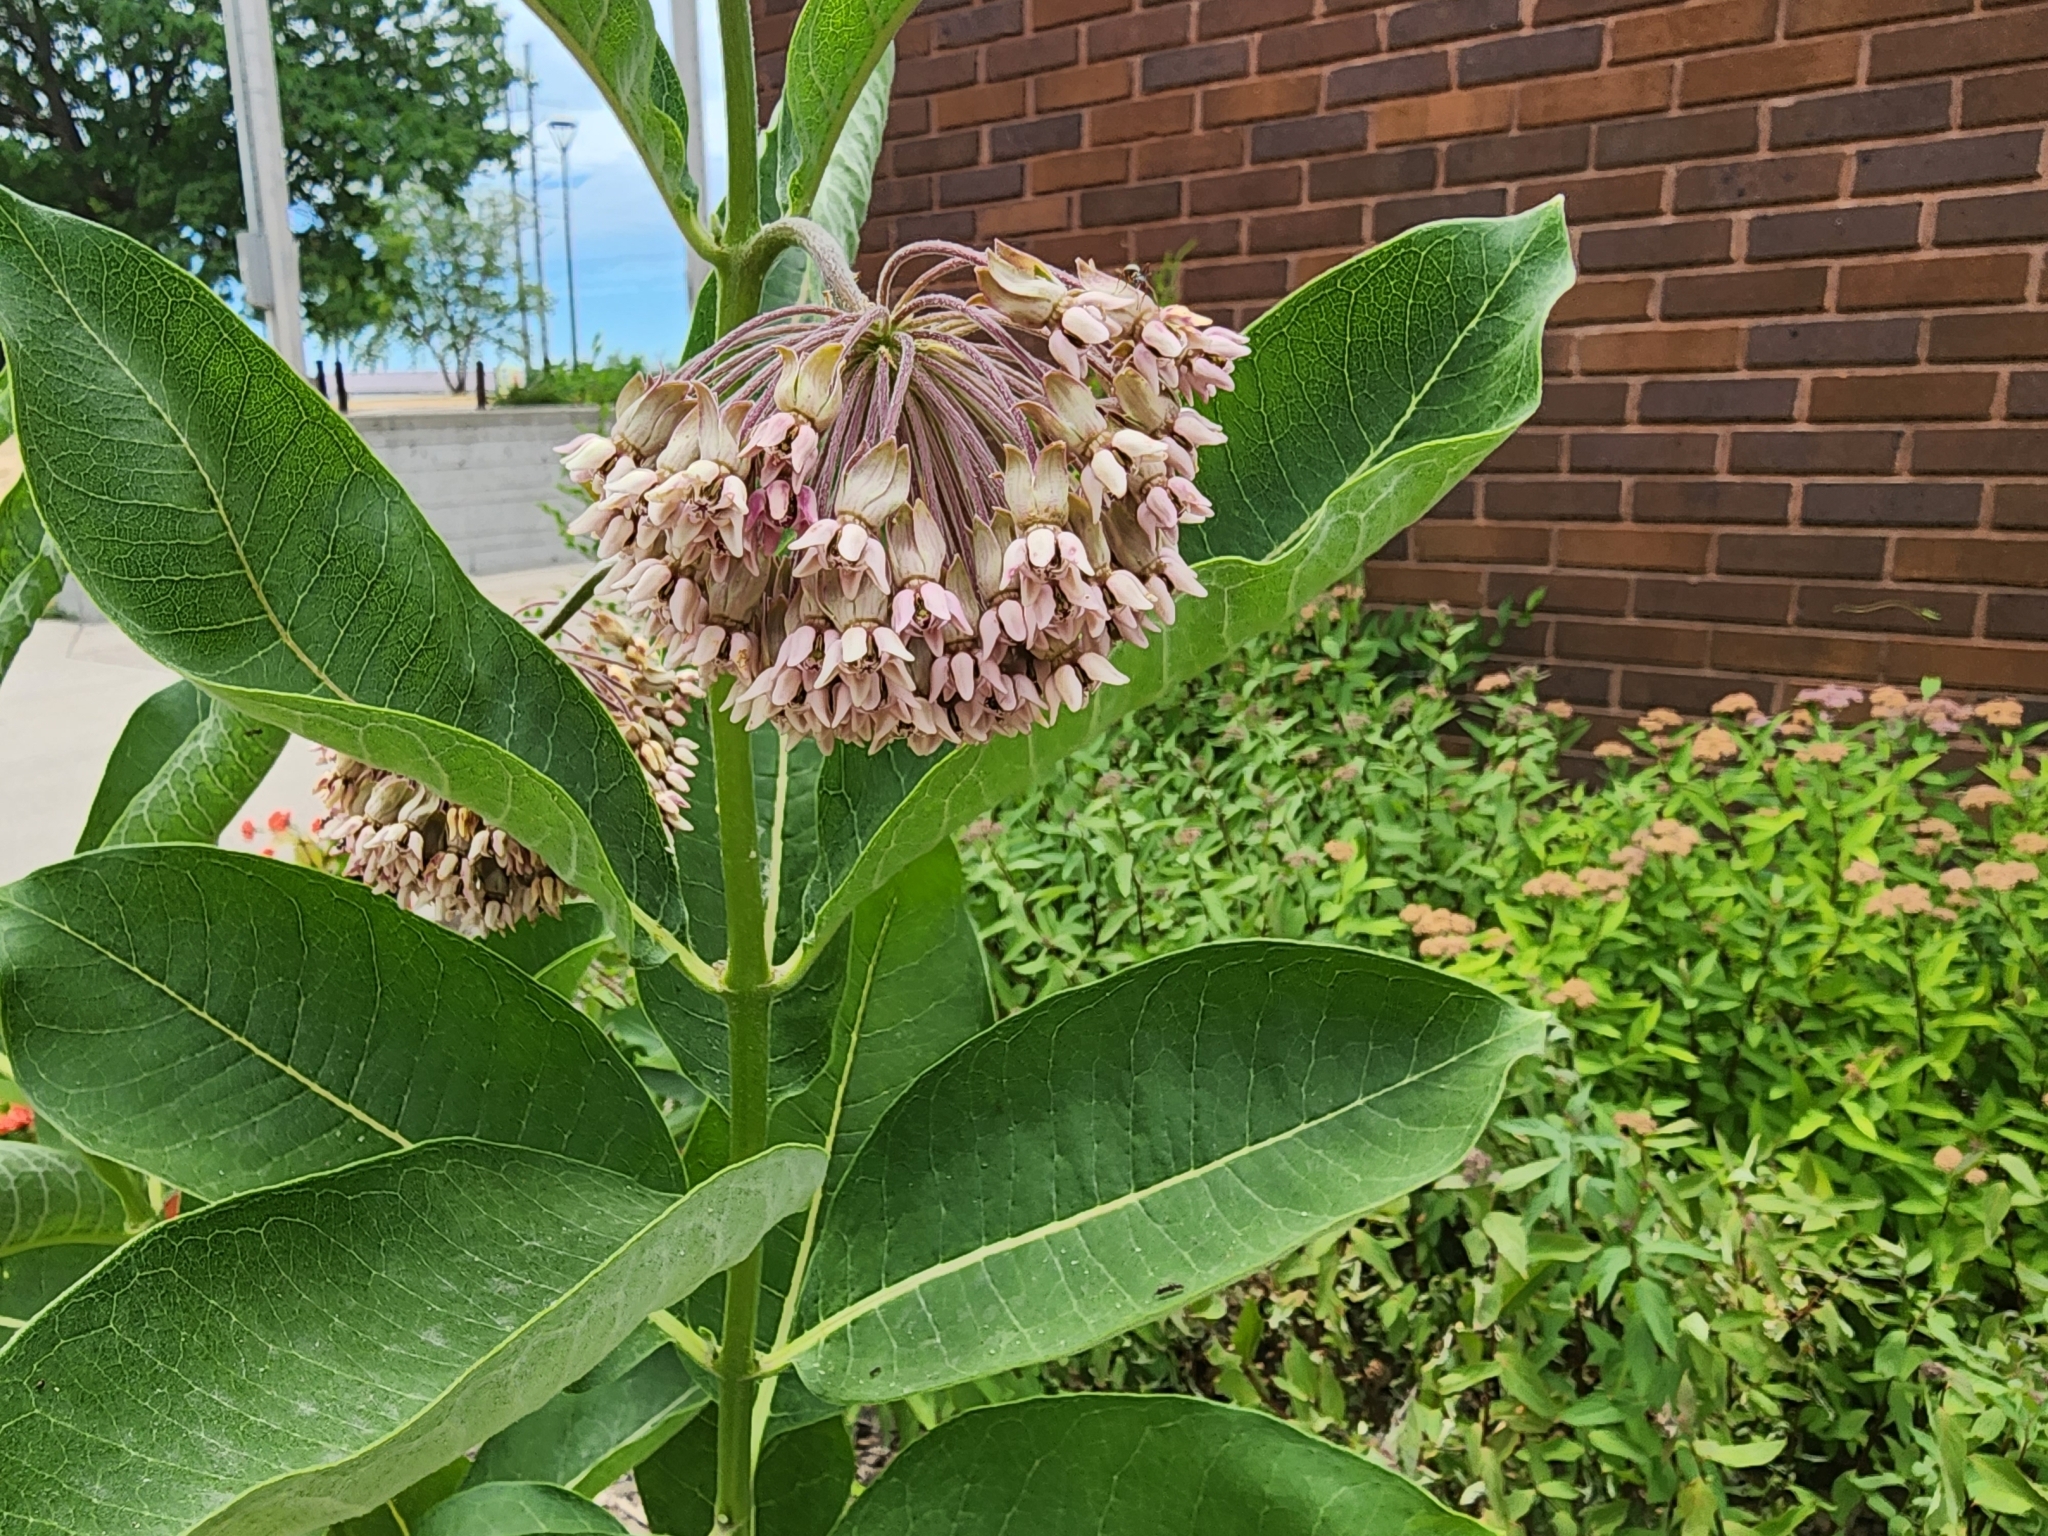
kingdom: Plantae
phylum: Tracheophyta
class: Magnoliopsida
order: Gentianales
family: Apocynaceae
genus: Asclepias
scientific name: Asclepias syriaca
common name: Common milkweed
